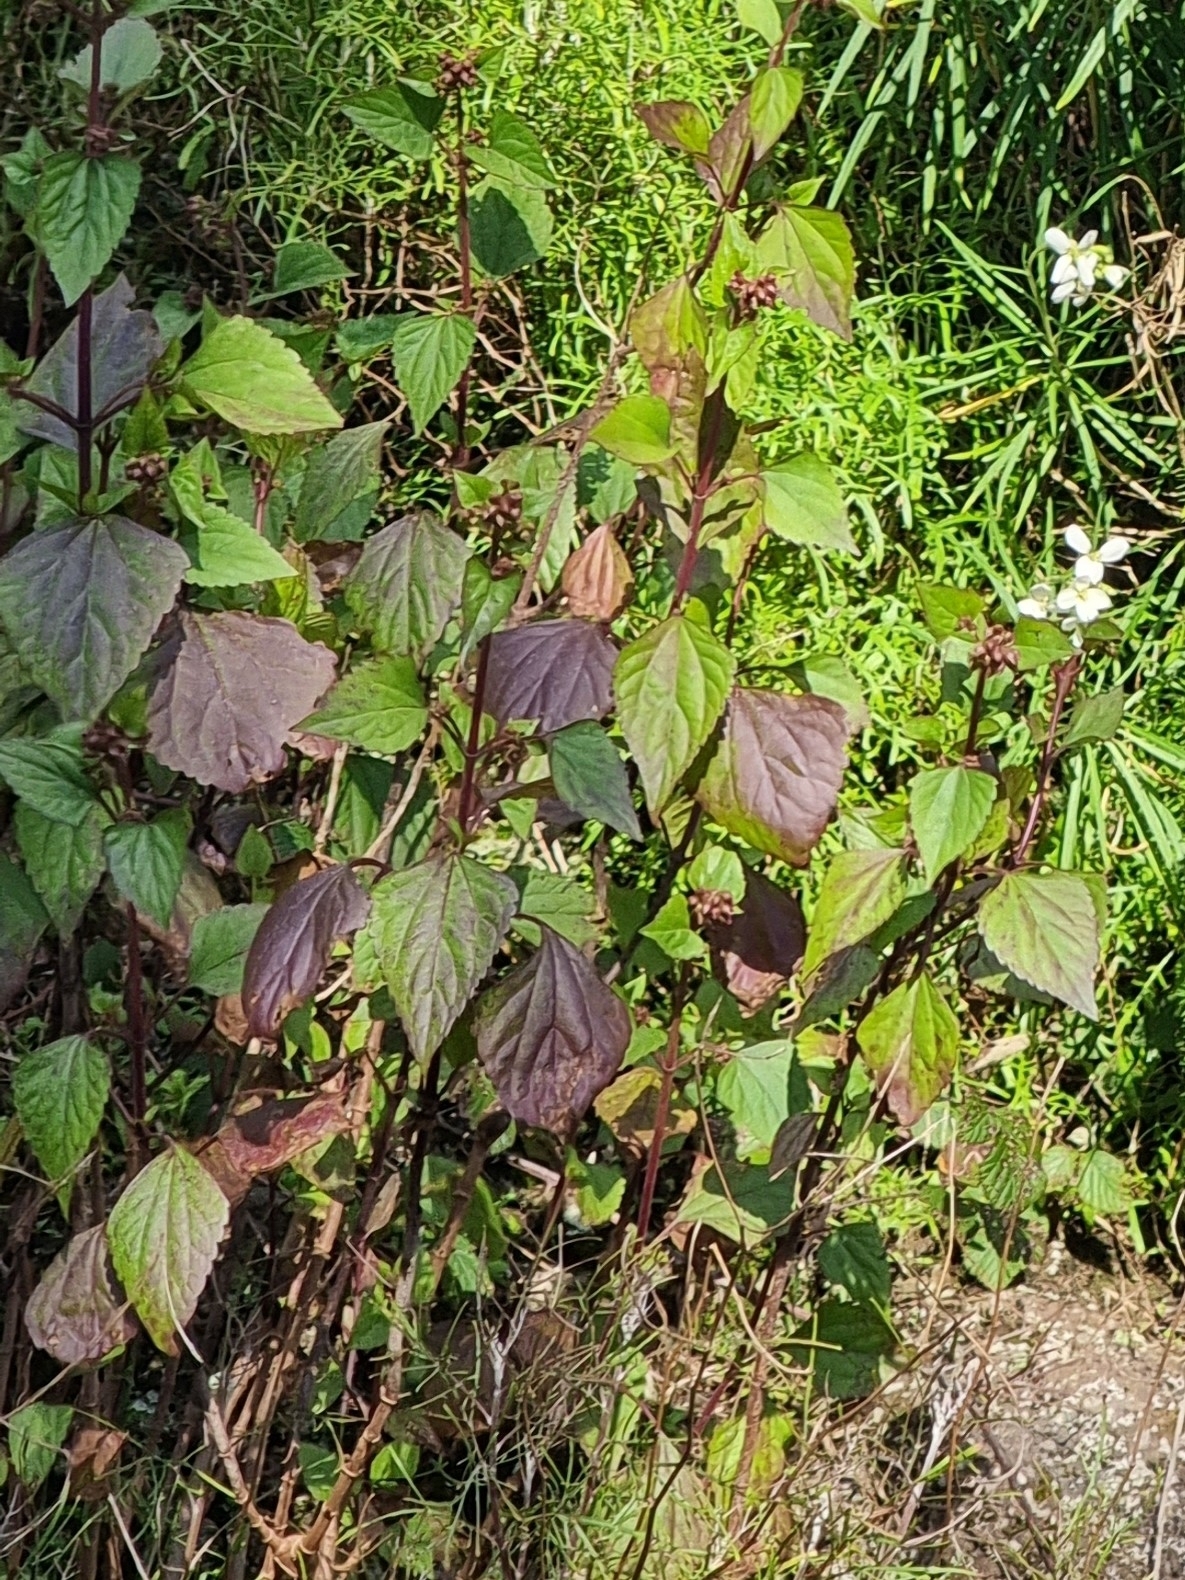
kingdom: Plantae
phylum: Tracheophyta
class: Magnoliopsida
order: Asterales
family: Asteraceae
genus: Ageratina
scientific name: Ageratina adenophora
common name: Sticky snakeroot
